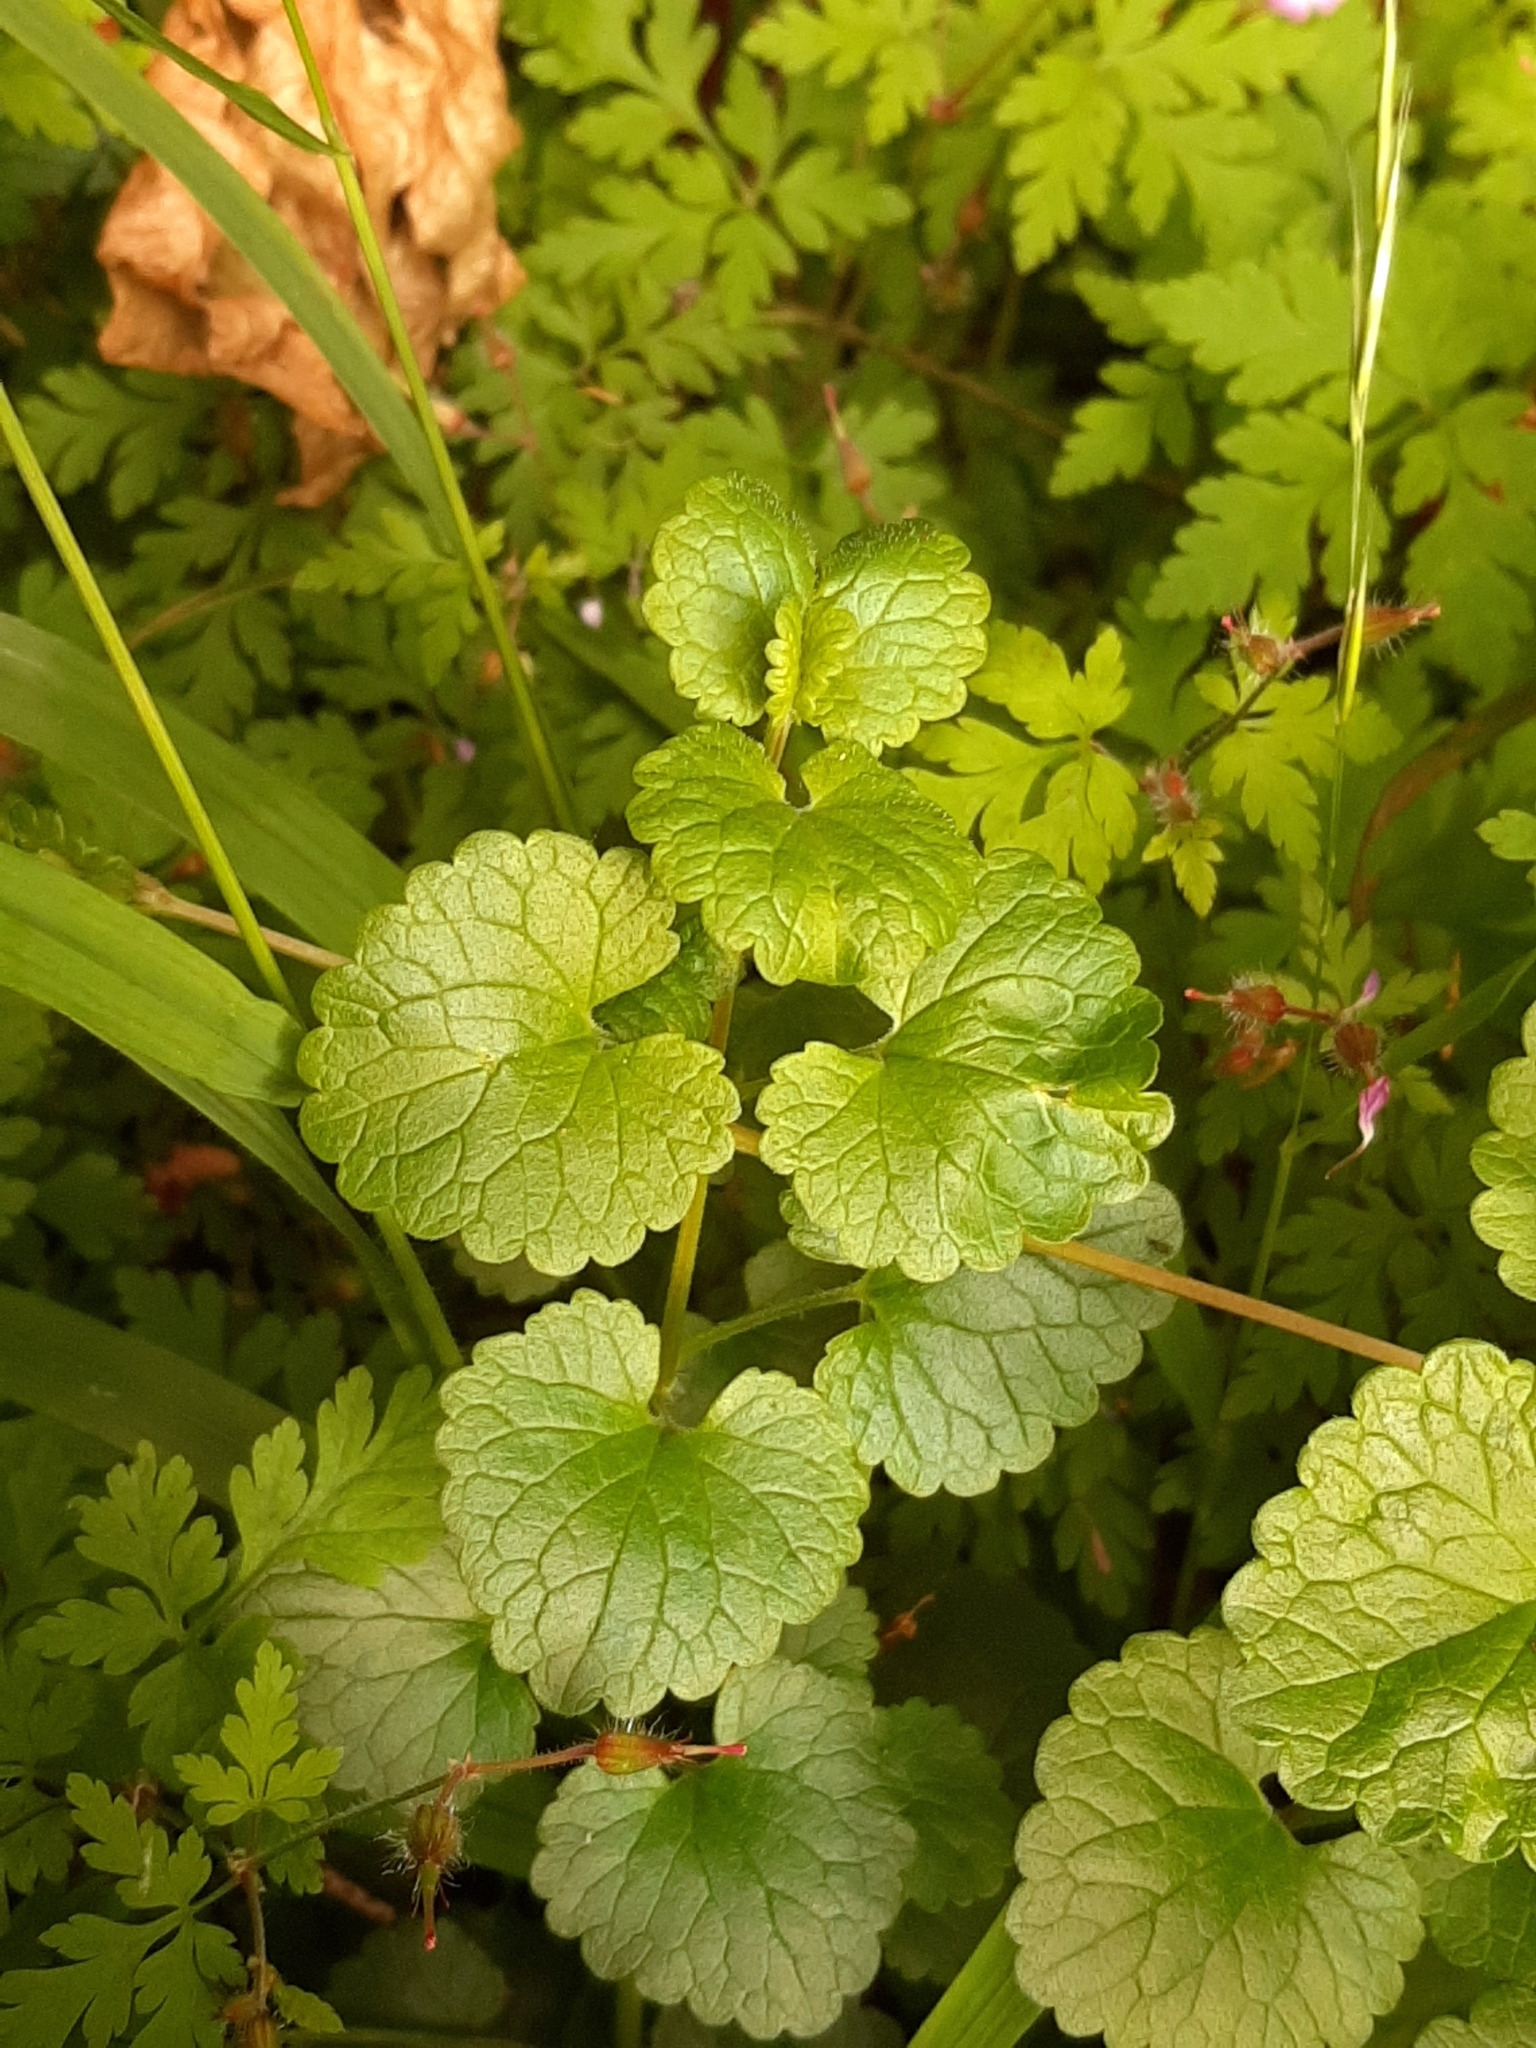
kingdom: Plantae
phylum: Tracheophyta
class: Magnoliopsida
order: Lamiales
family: Lamiaceae
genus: Glechoma
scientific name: Glechoma hederacea
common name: Ground ivy
